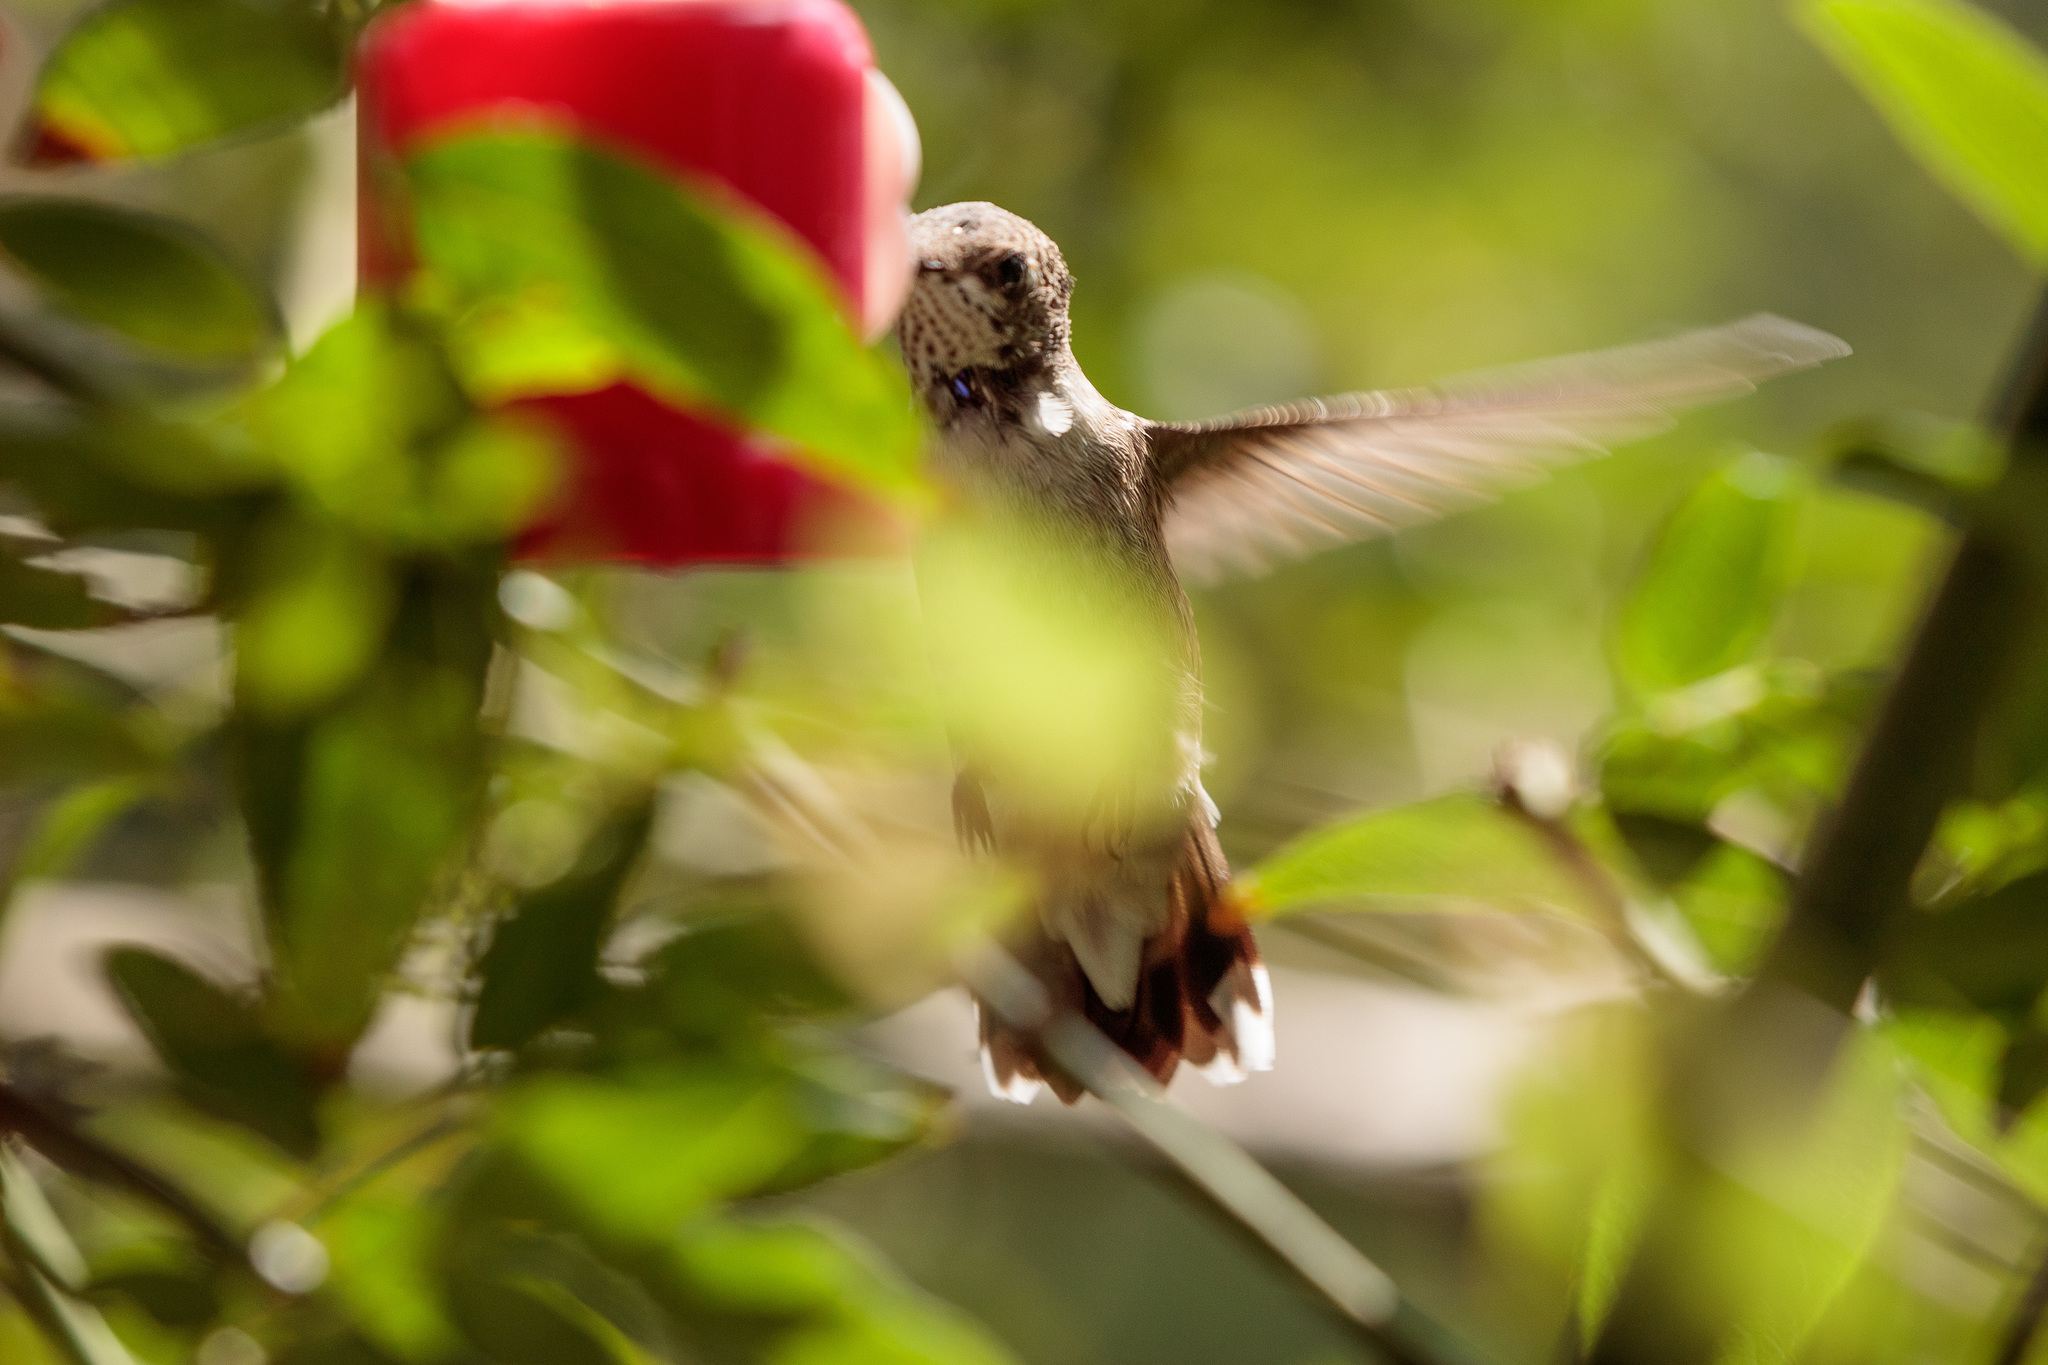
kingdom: Animalia
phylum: Chordata
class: Aves
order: Apodiformes
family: Trochilidae
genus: Archilochus
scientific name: Archilochus alexandri
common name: Black-chinned hummingbird
